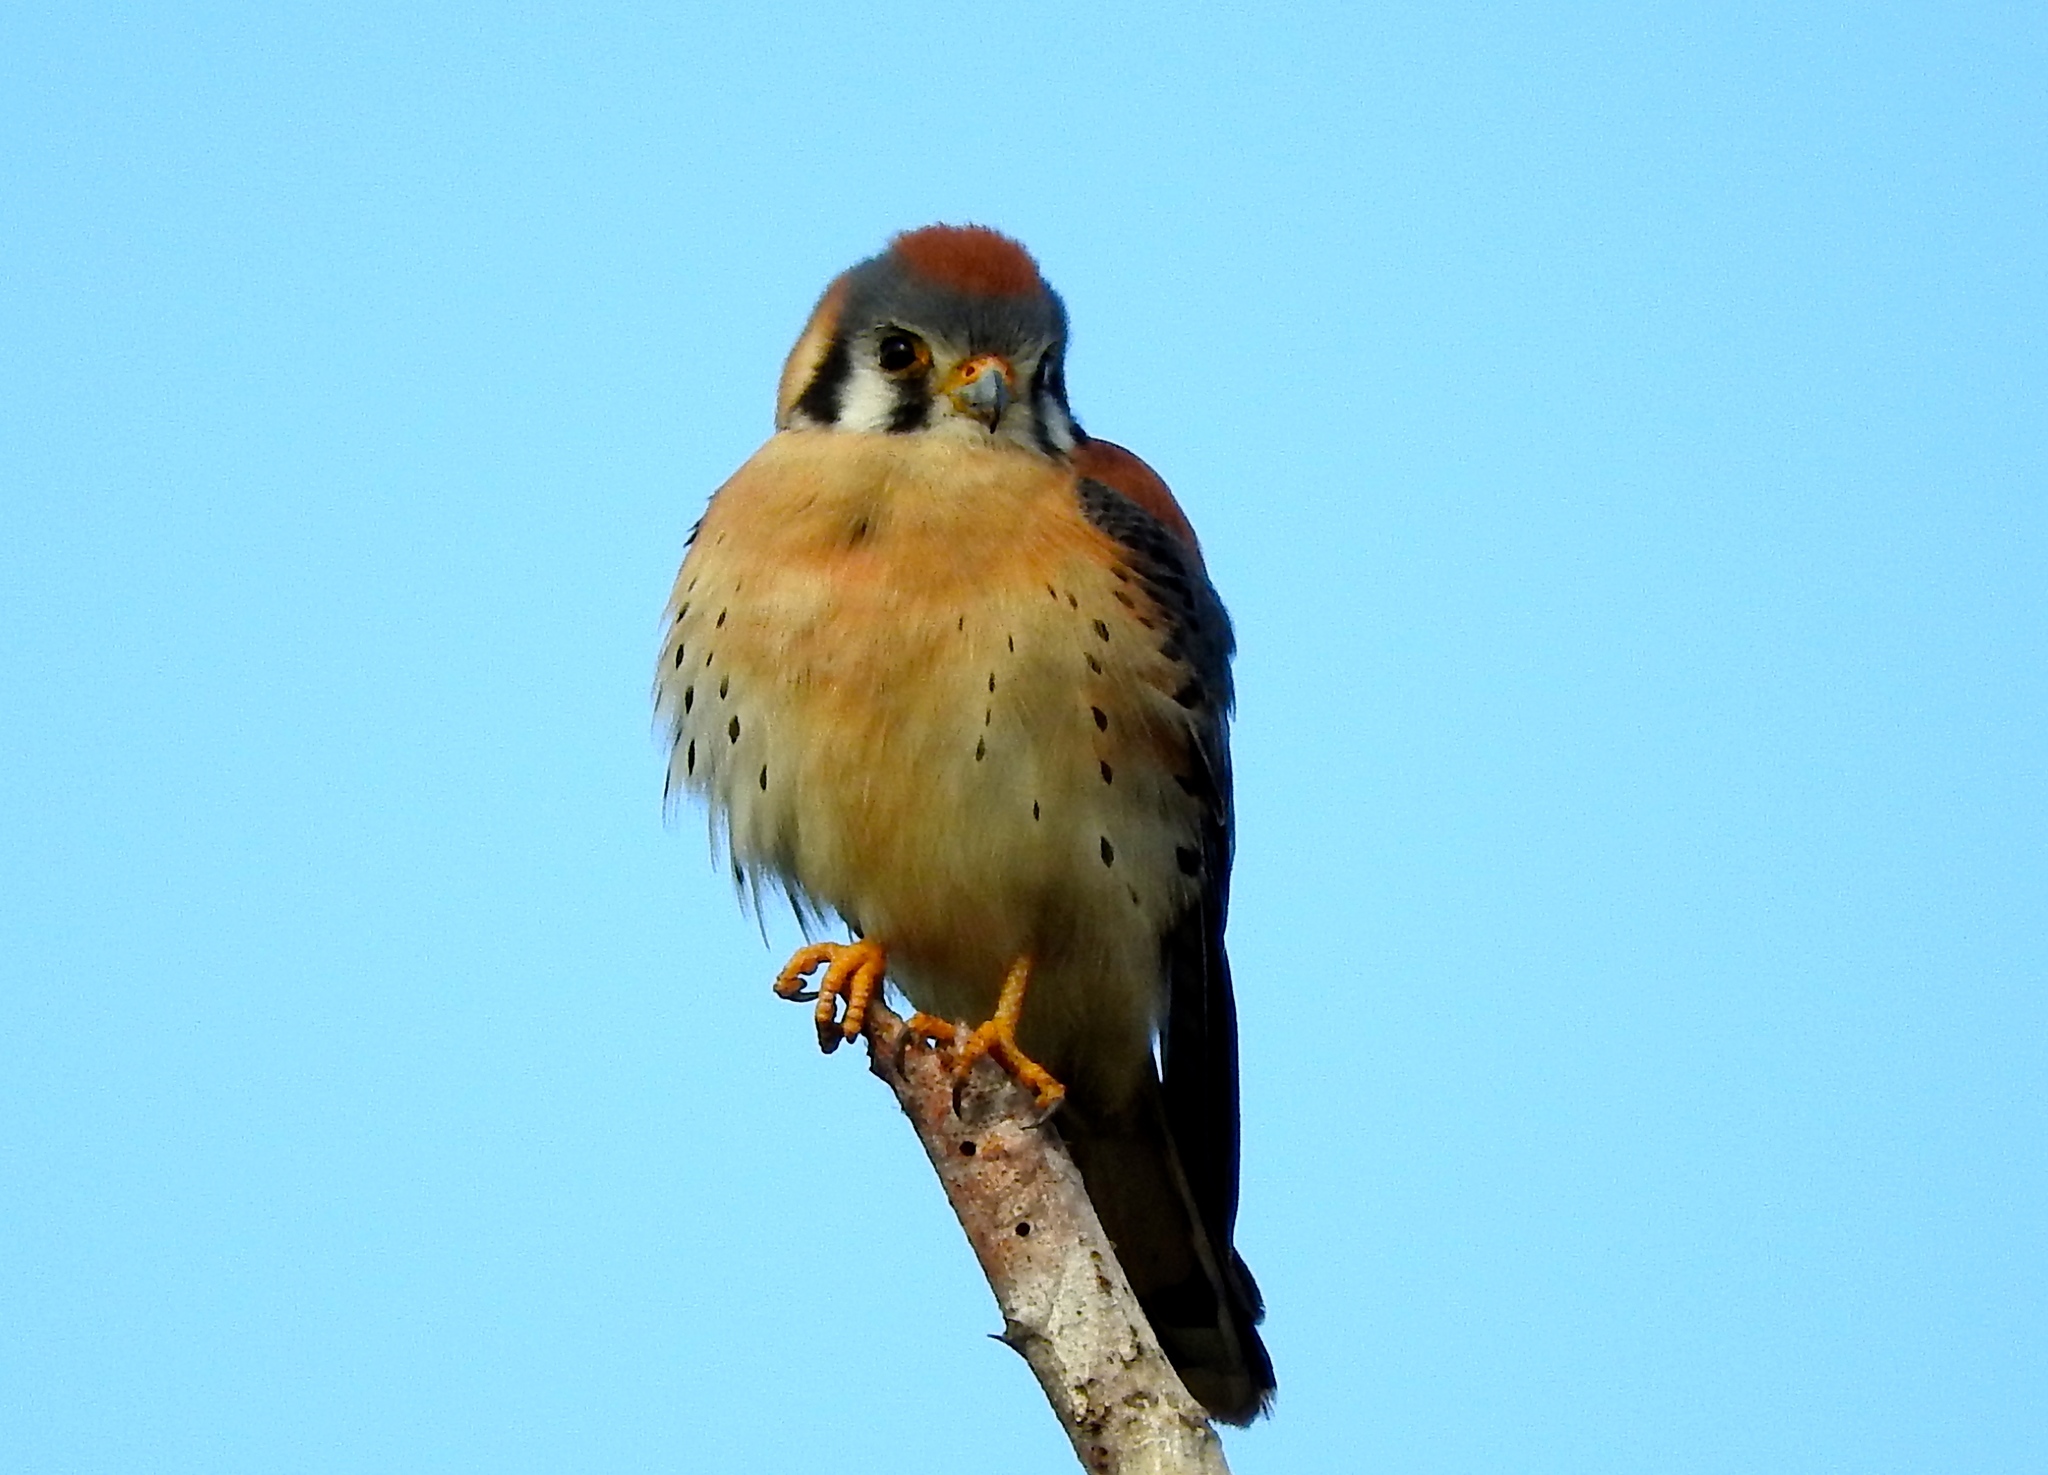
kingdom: Animalia
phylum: Chordata
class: Aves
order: Falconiformes
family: Falconidae
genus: Falco
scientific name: Falco sparverius
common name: American kestrel
